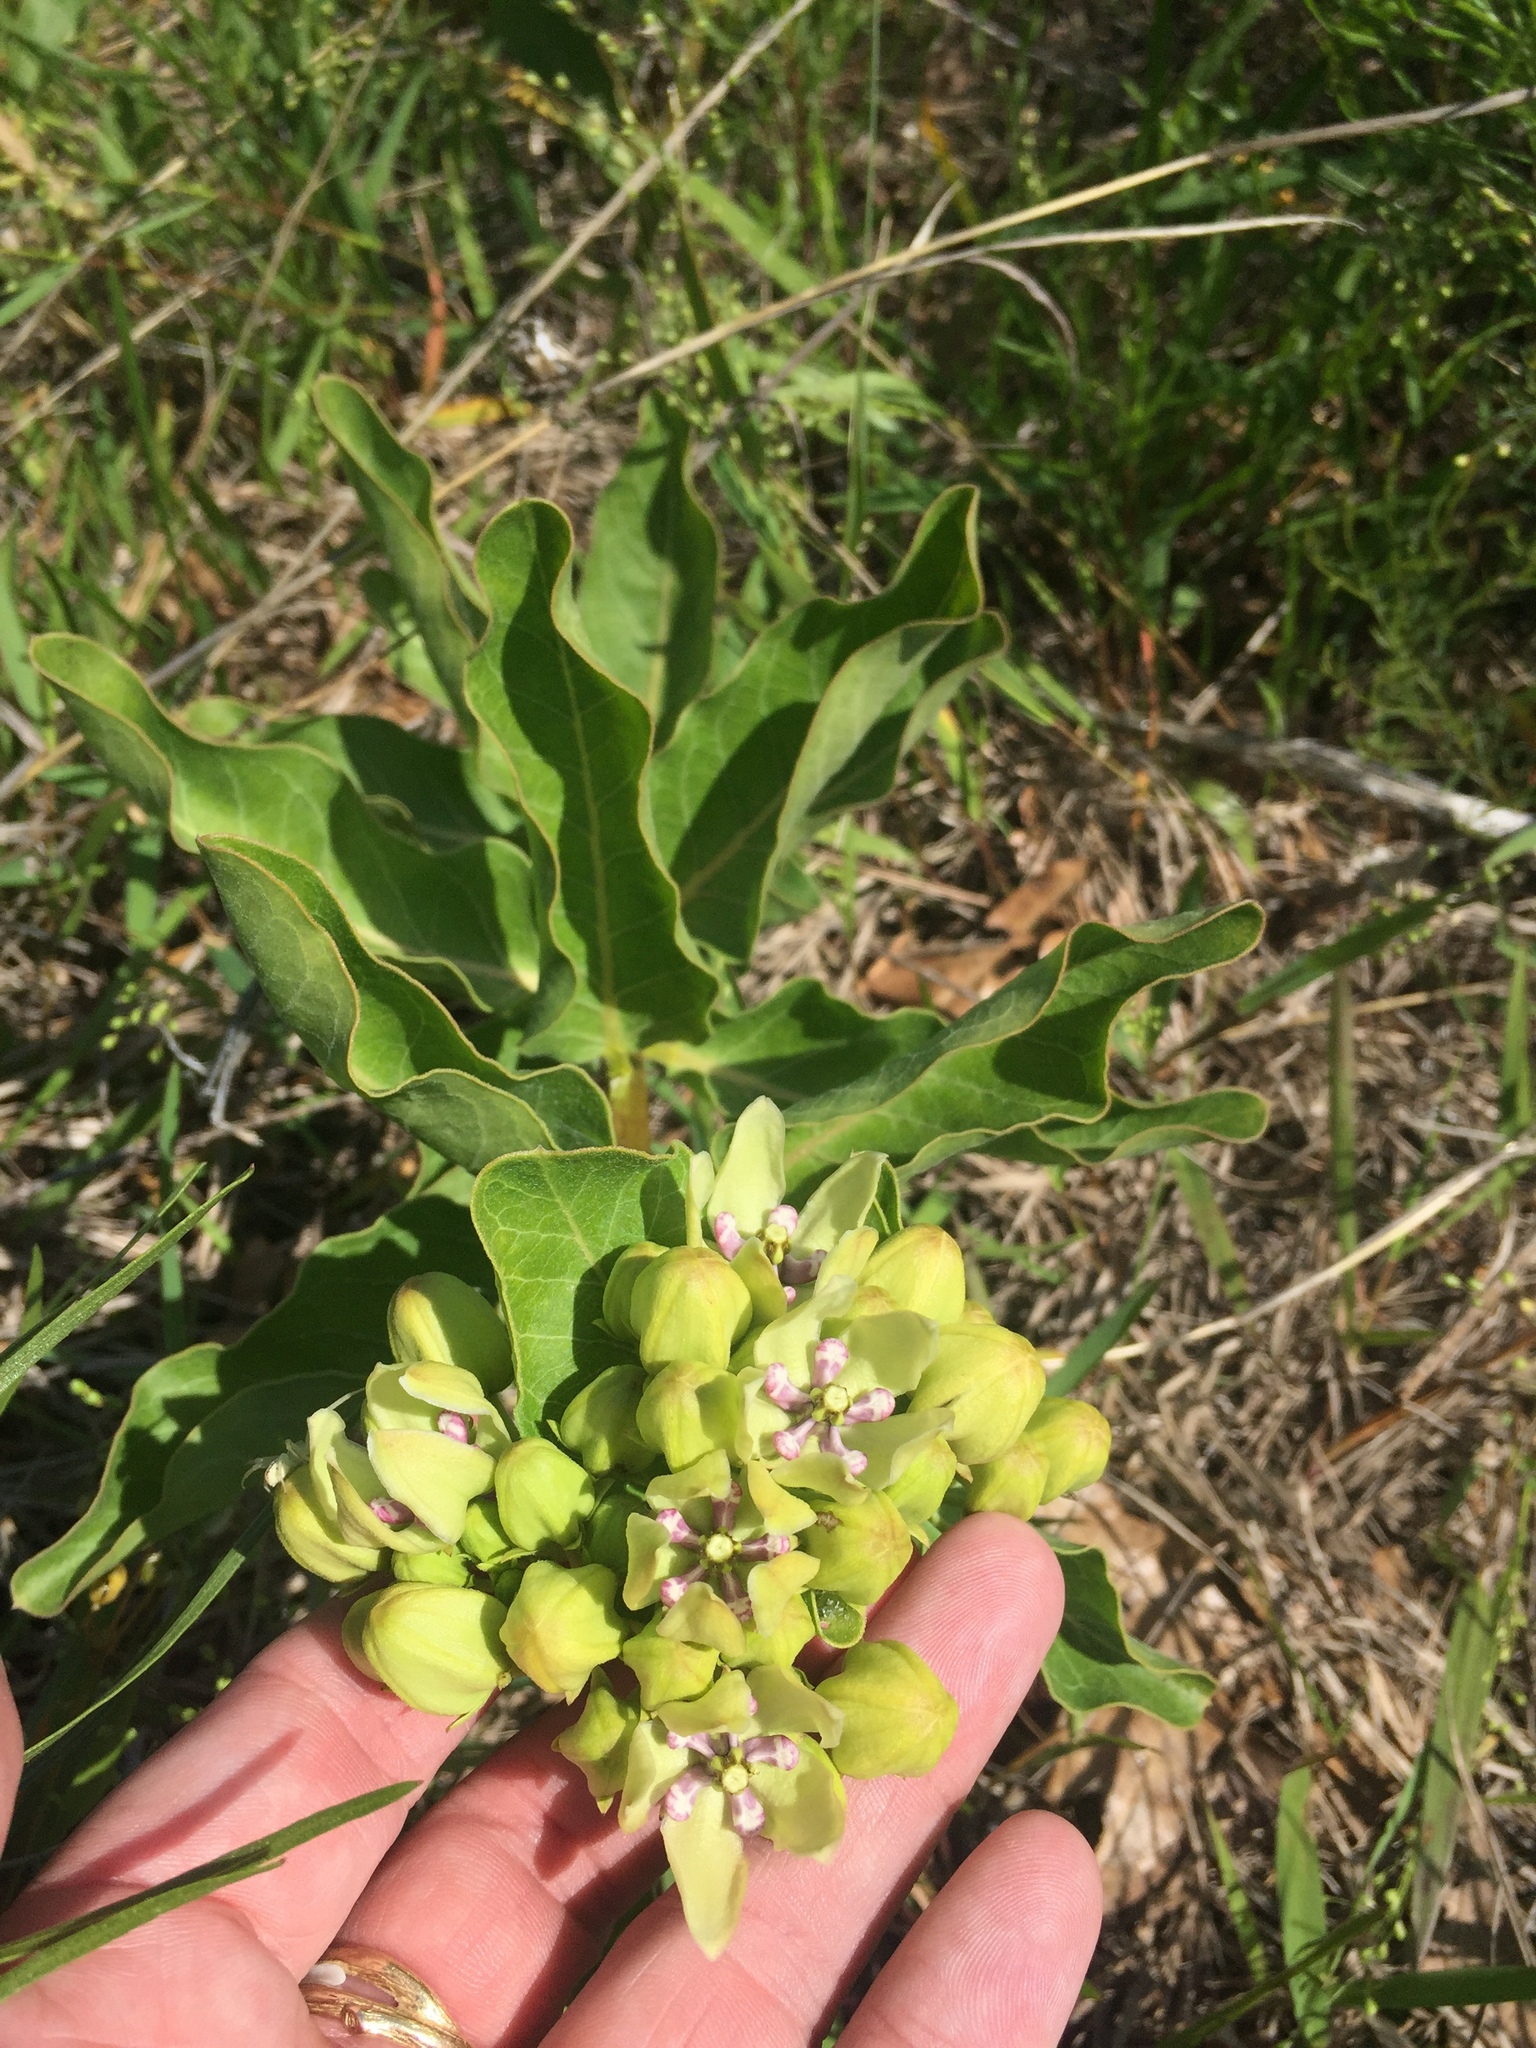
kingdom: Plantae
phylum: Tracheophyta
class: Magnoliopsida
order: Gentianales
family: Apocynaceae
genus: Asclepias
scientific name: Asclepias viridis
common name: Antelope-horns
